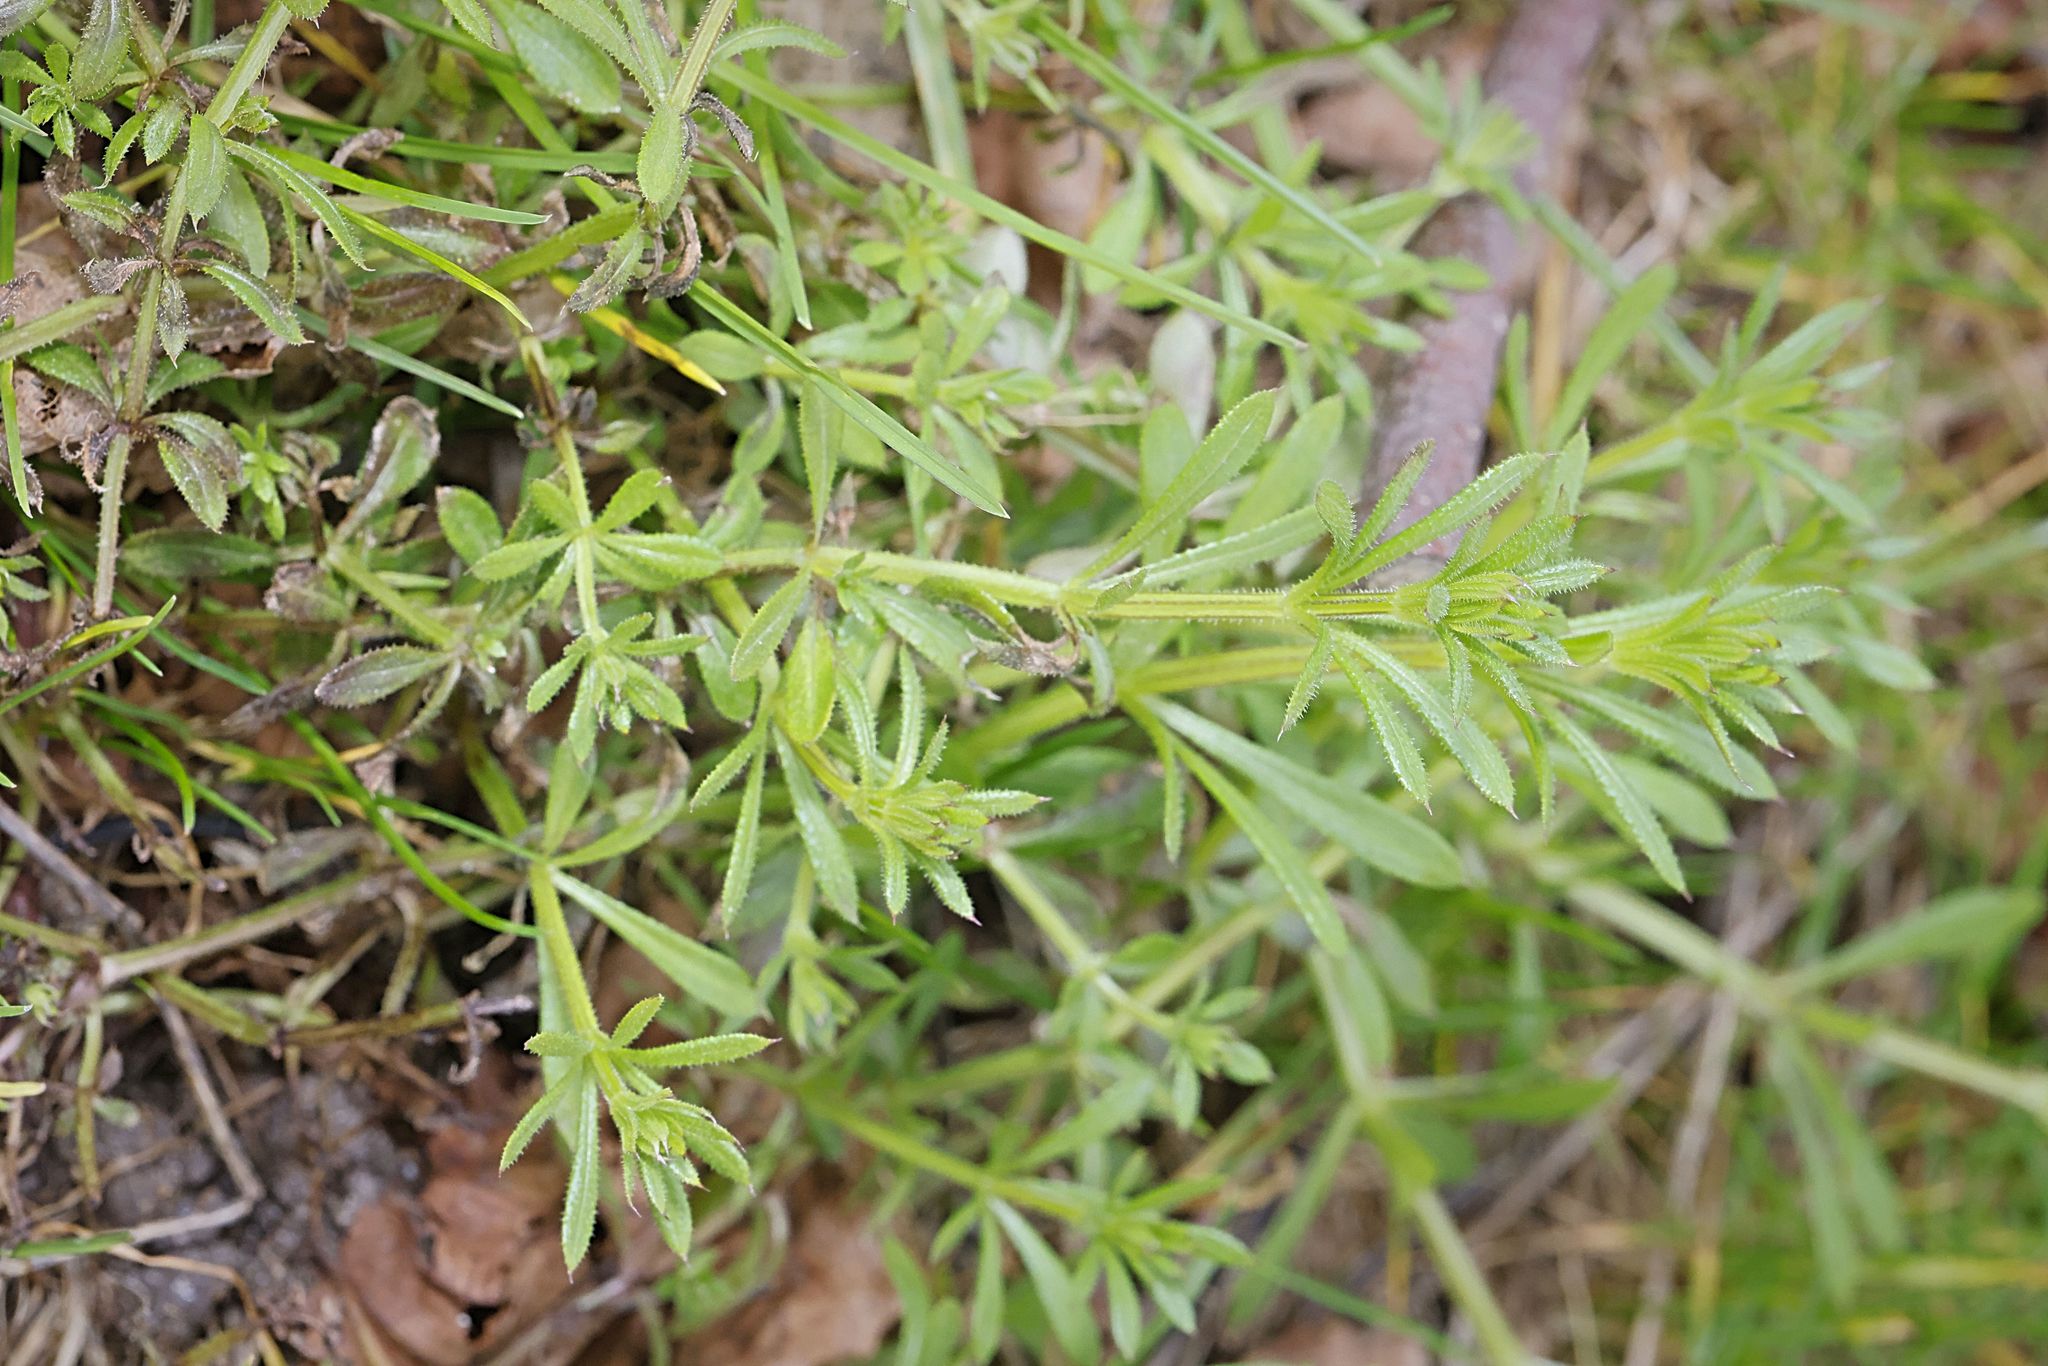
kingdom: Plantae
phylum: Tracheophyta
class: Magnoliopsida
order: Gentianales
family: Rubiaceae
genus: Galium
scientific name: Galium aparine
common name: Cleavers
